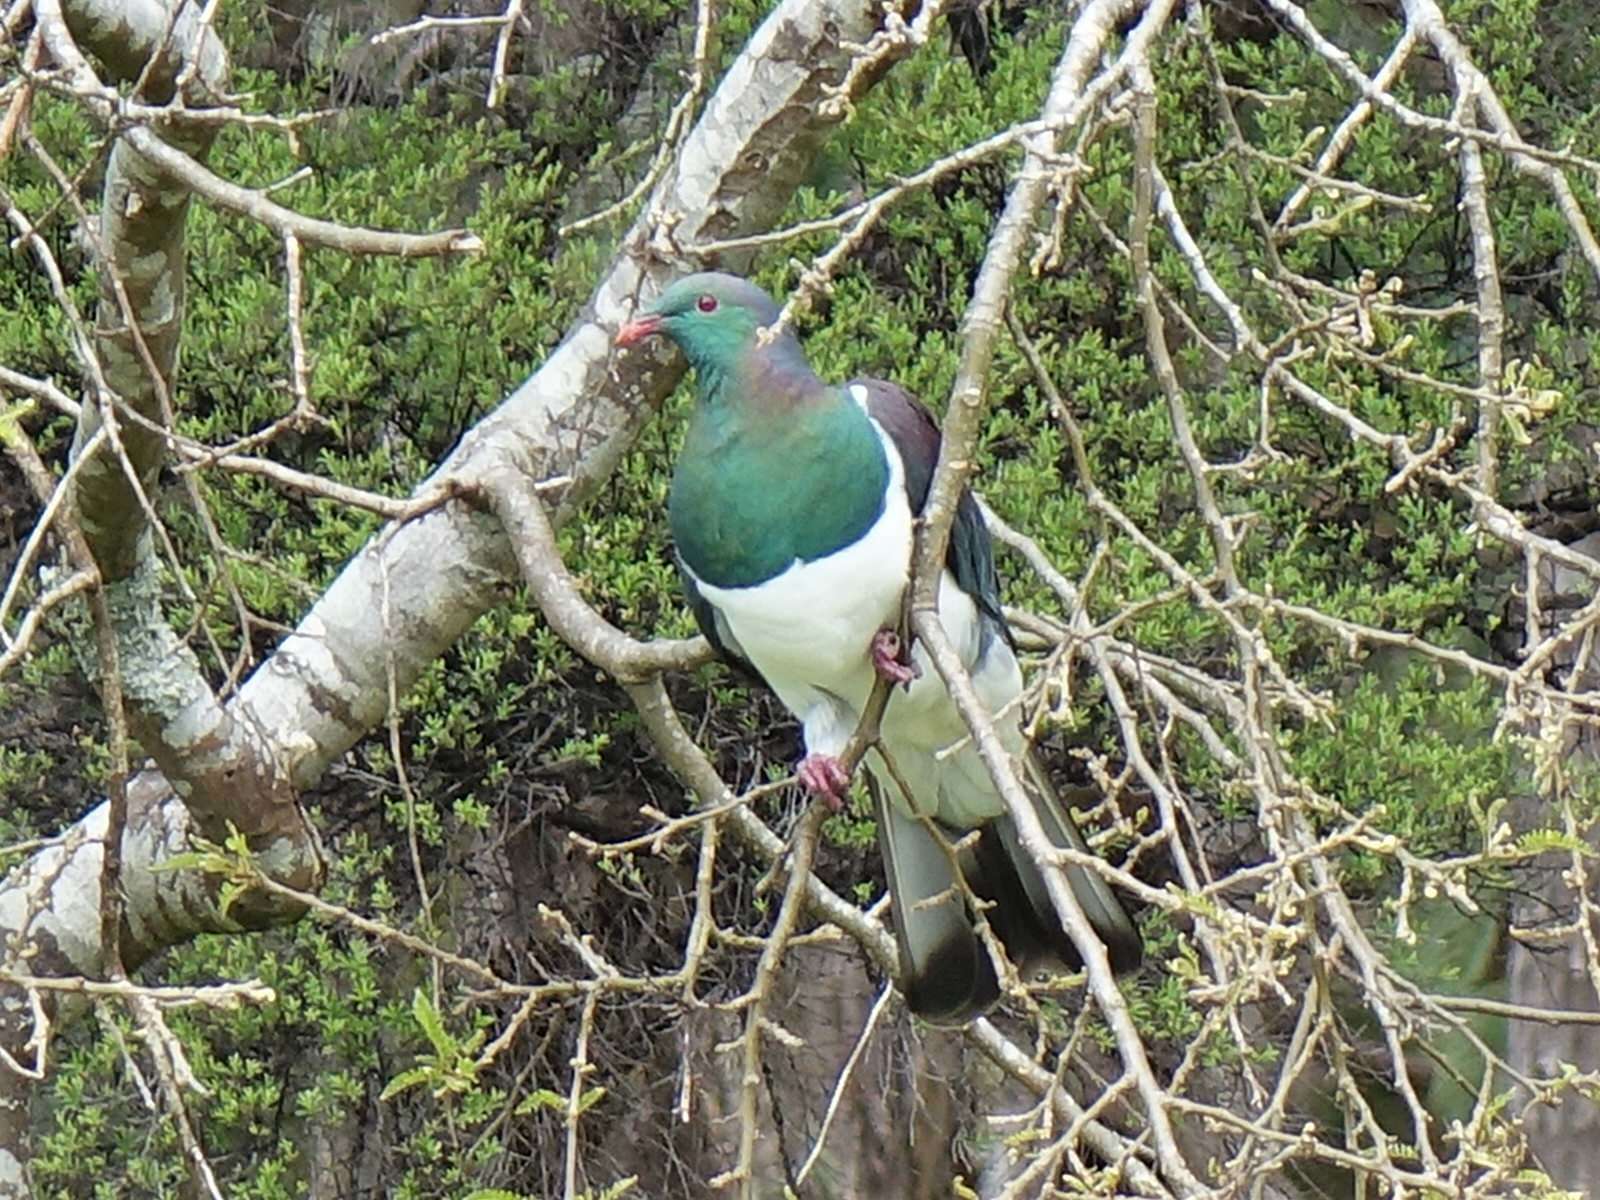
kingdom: Animalia
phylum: Chordata
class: Aves
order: Columbiformes
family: Columbidae
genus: Hemiphaga
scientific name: Hemiphaga novaeseelandiae
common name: New zealand pigeon
